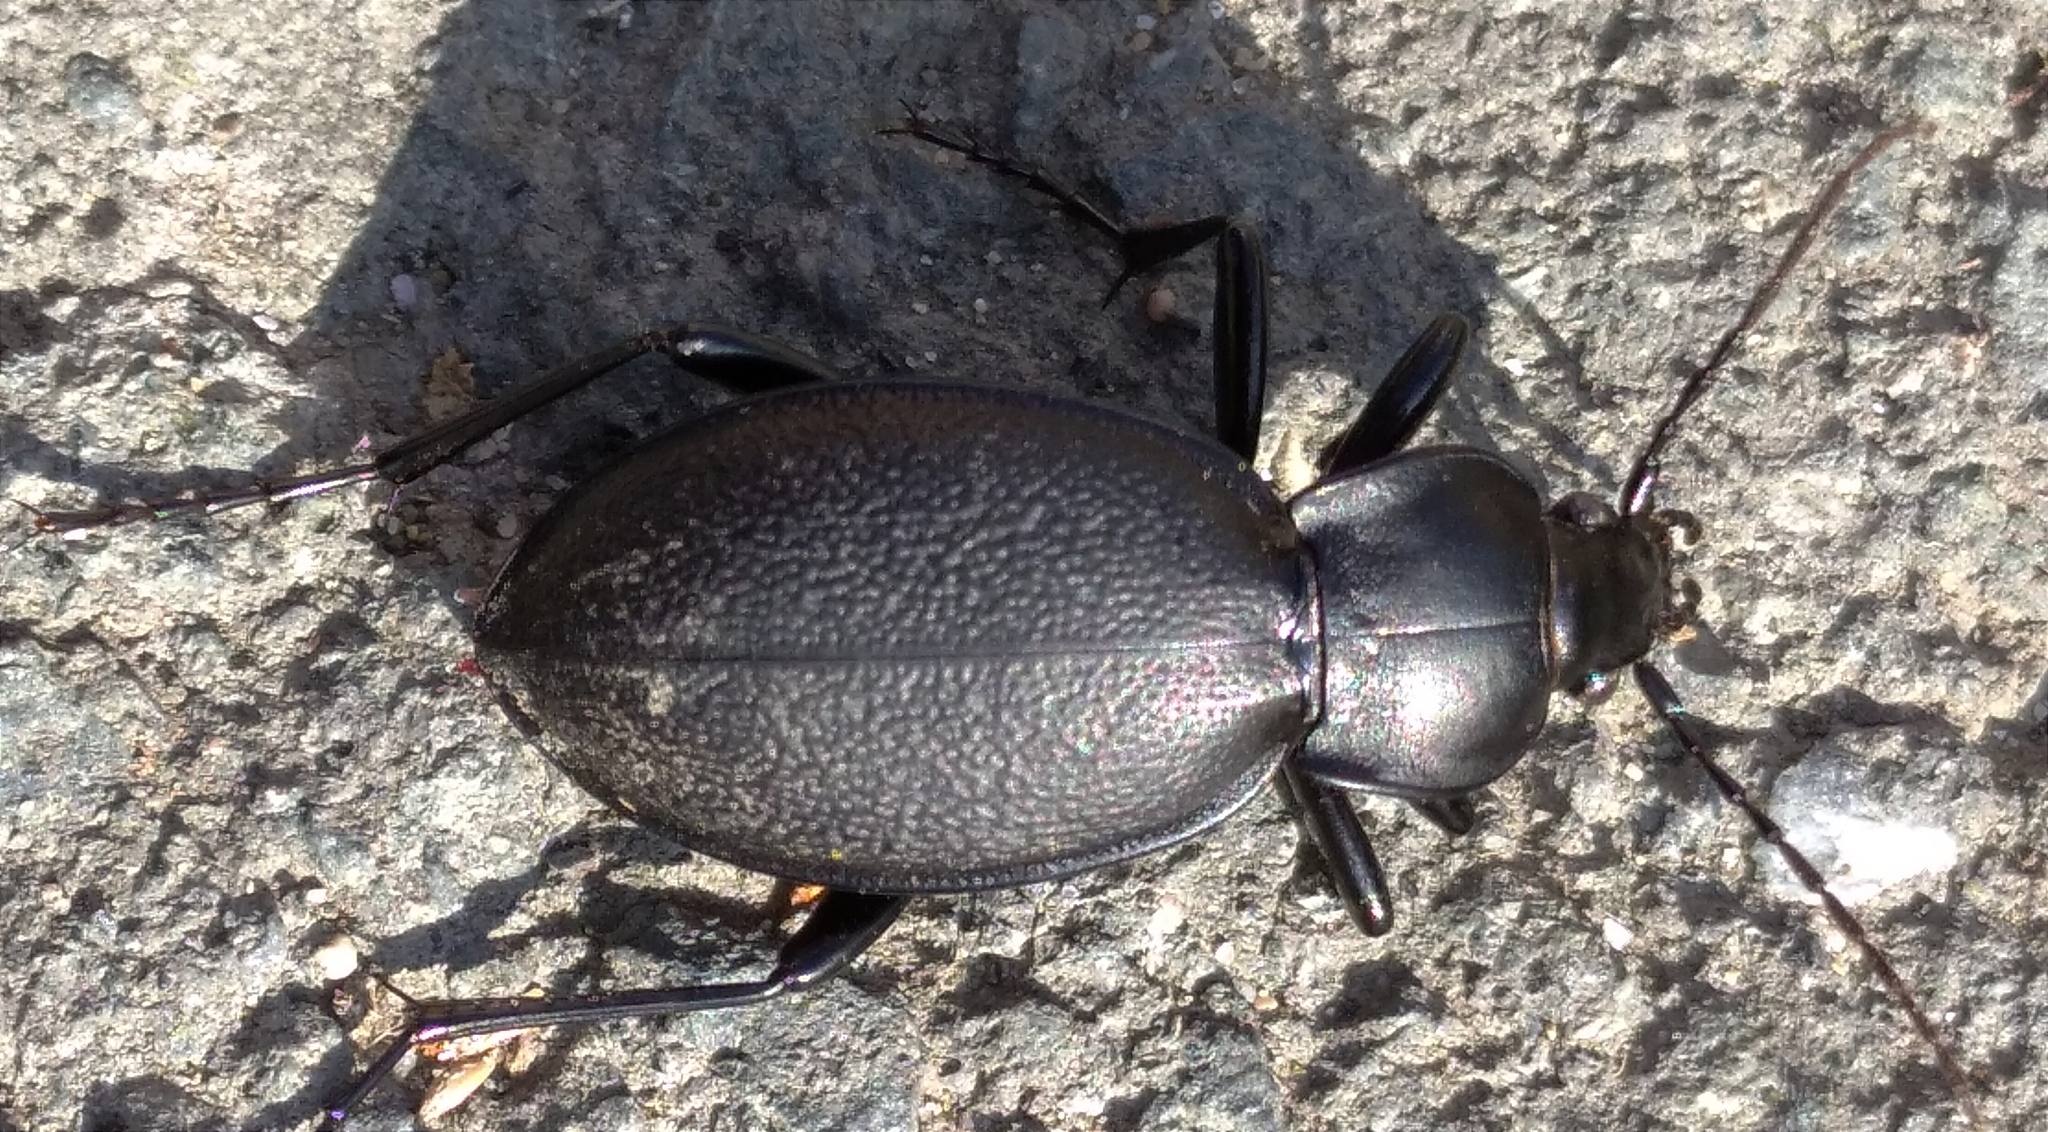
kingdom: Animalia
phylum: Arthropoda
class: Insecta
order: Coleoptera
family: Carabidae
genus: Carabus
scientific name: Carabus coriaceus
